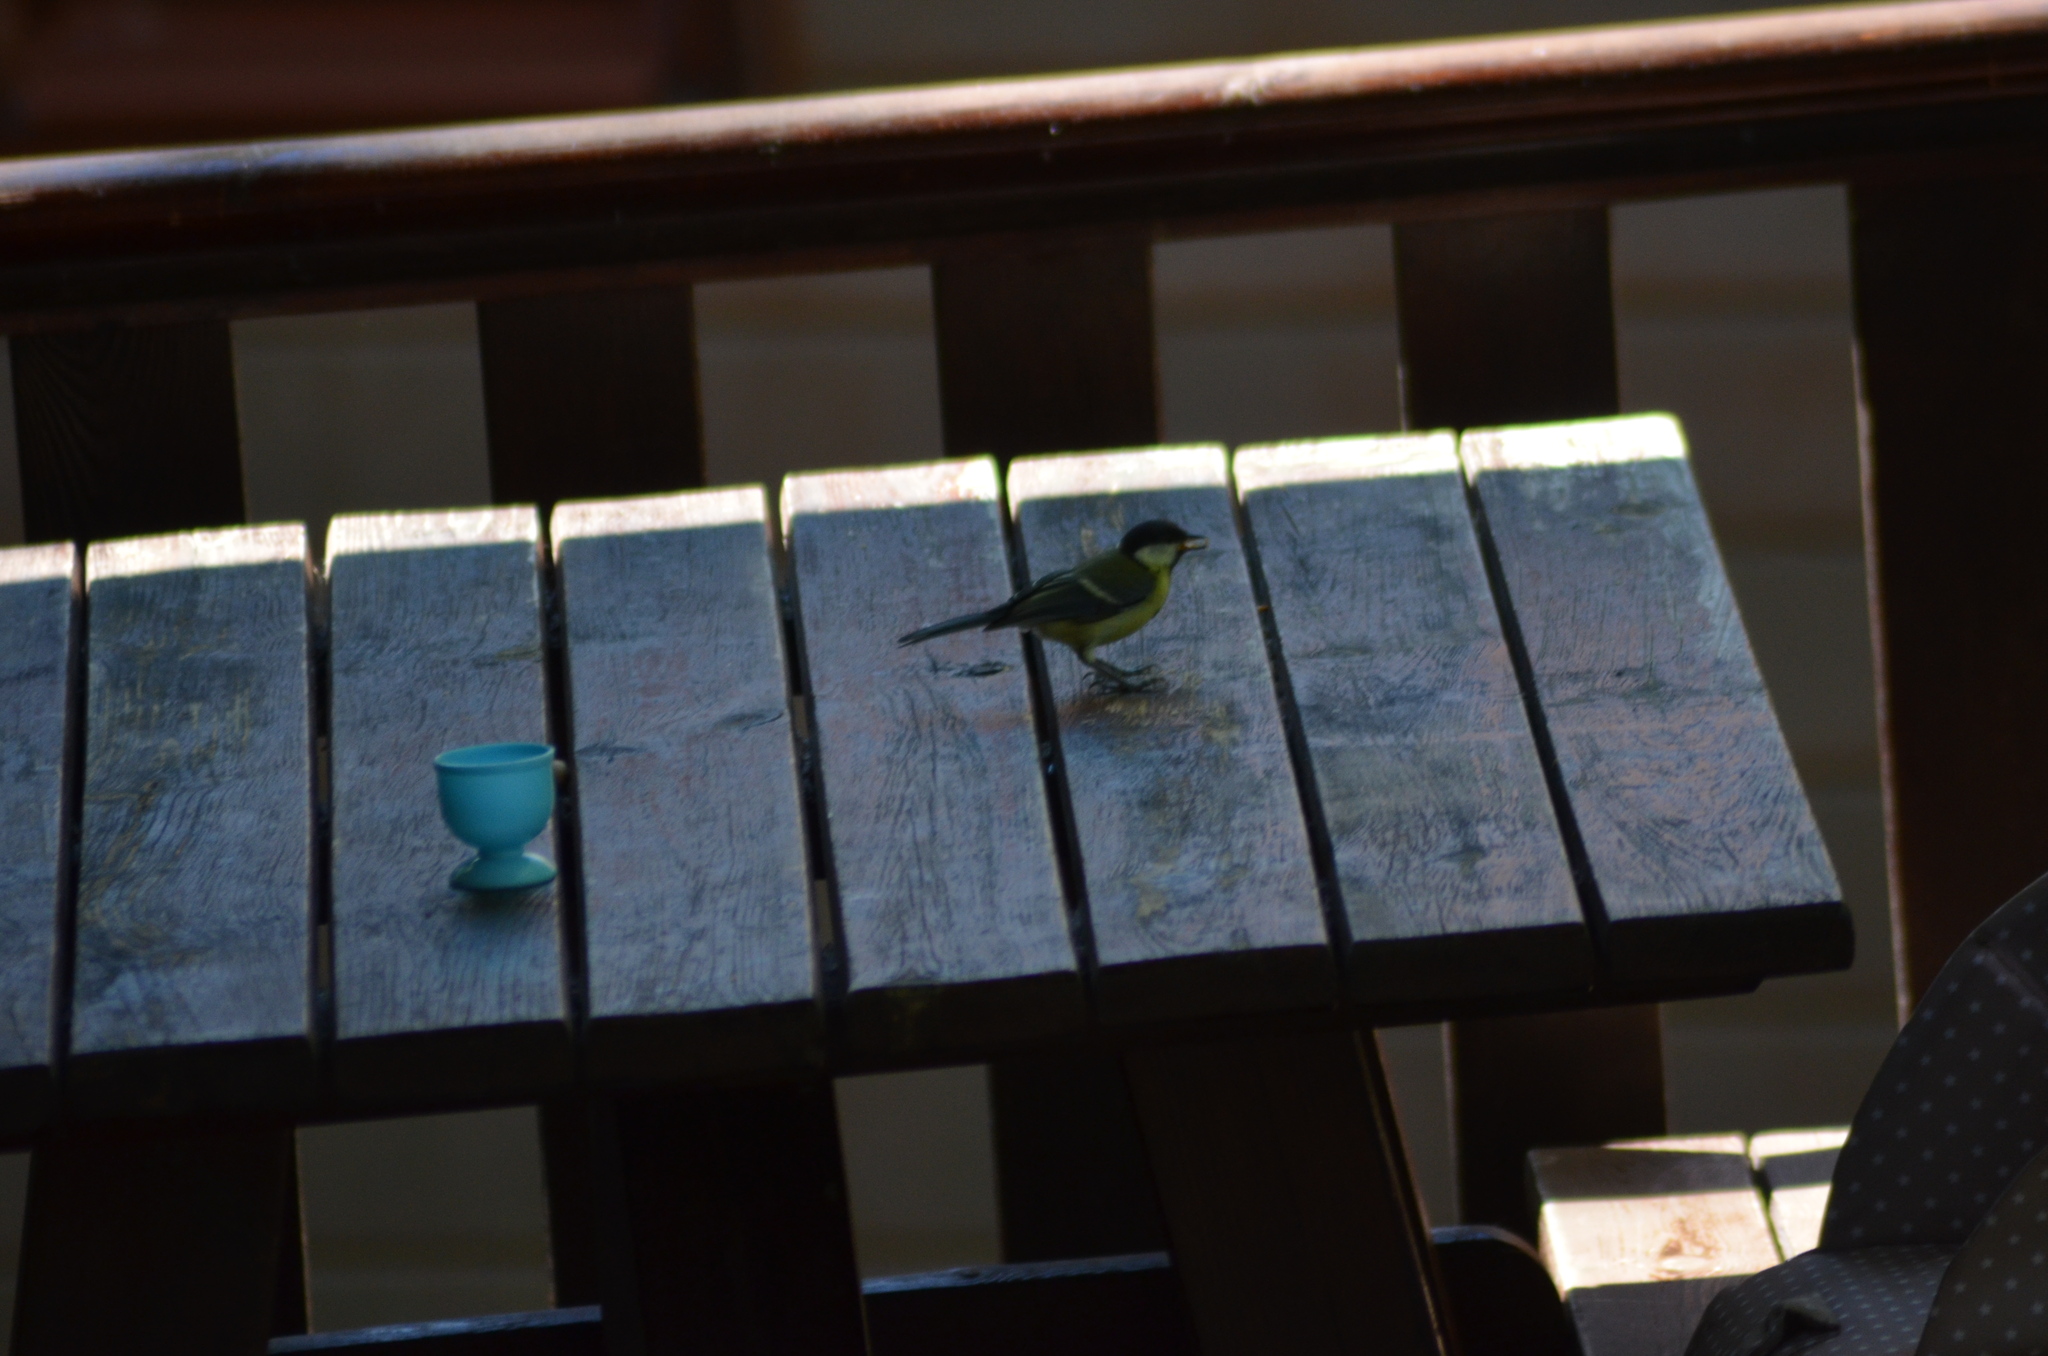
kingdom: Animalia
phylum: Chordata
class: Aves
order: Passeriformes
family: Paridae
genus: Parus
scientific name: Parus major
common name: Great tit
